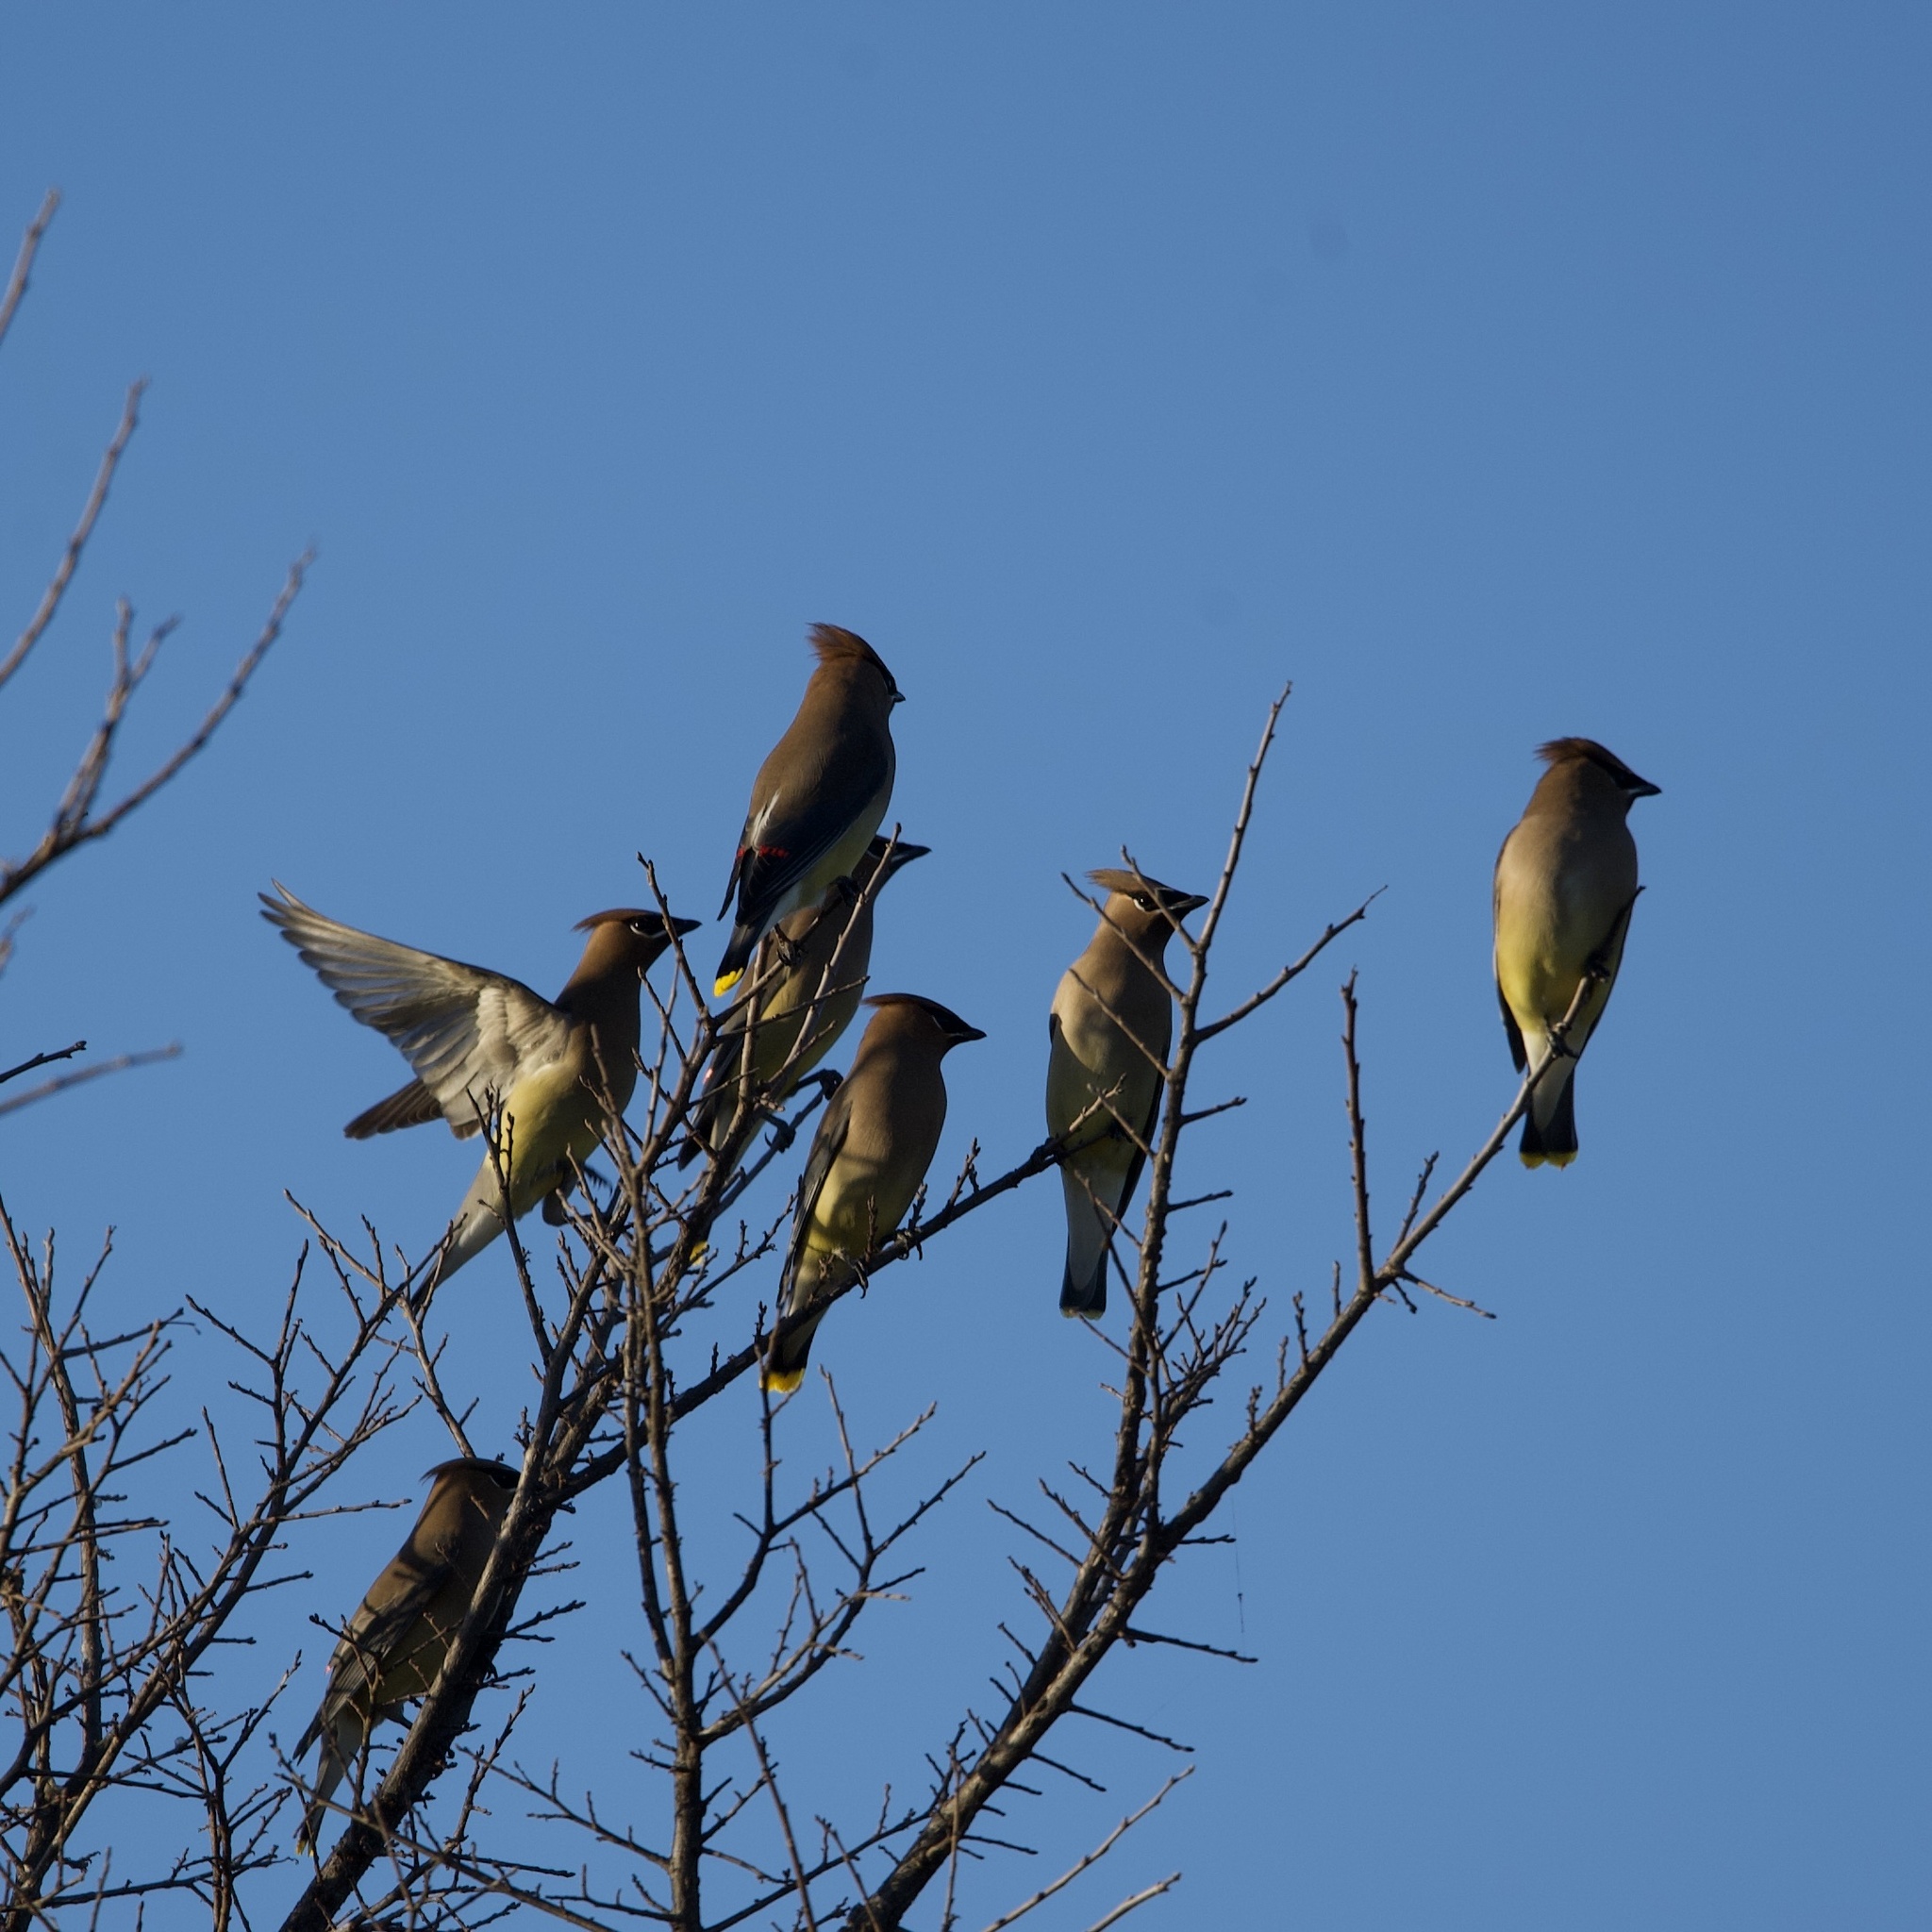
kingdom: Animalia
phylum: Chordata
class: Aves
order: Passeriformes
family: Bombycillidae
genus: Bombycilla
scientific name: Bombycilla cedrorum
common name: Cedar waxwing
